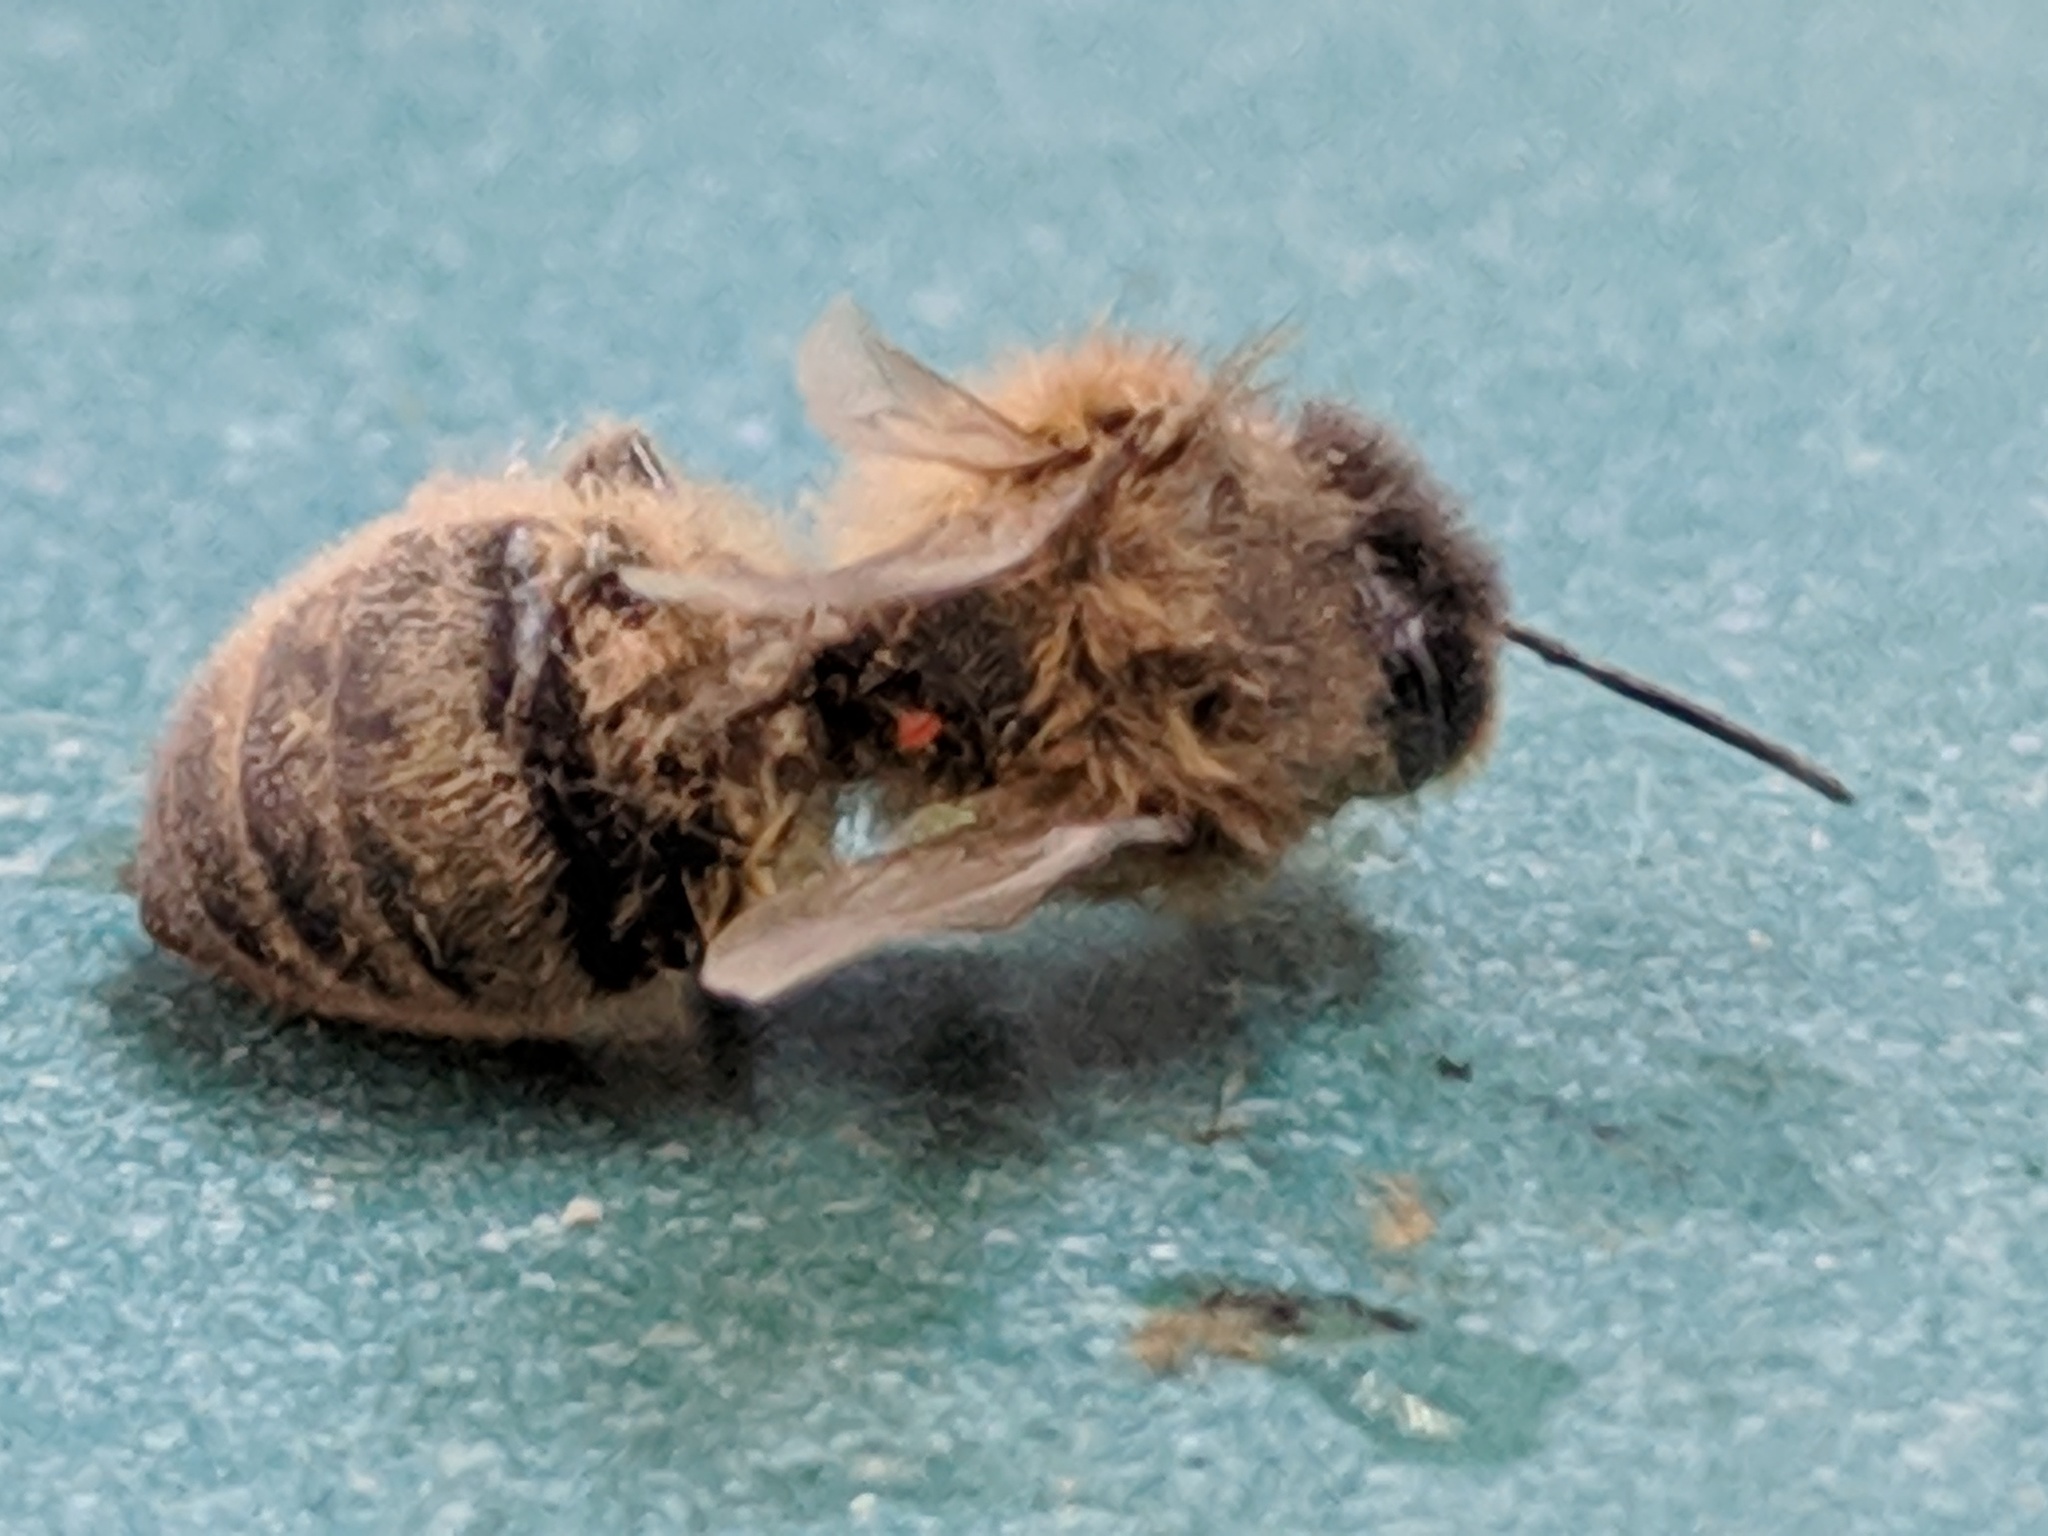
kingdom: Animalia
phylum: Arthropoda
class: Insecta
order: Hymenoptera
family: Apidae
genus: Apis
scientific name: Apis mellifera
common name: Honey bee
